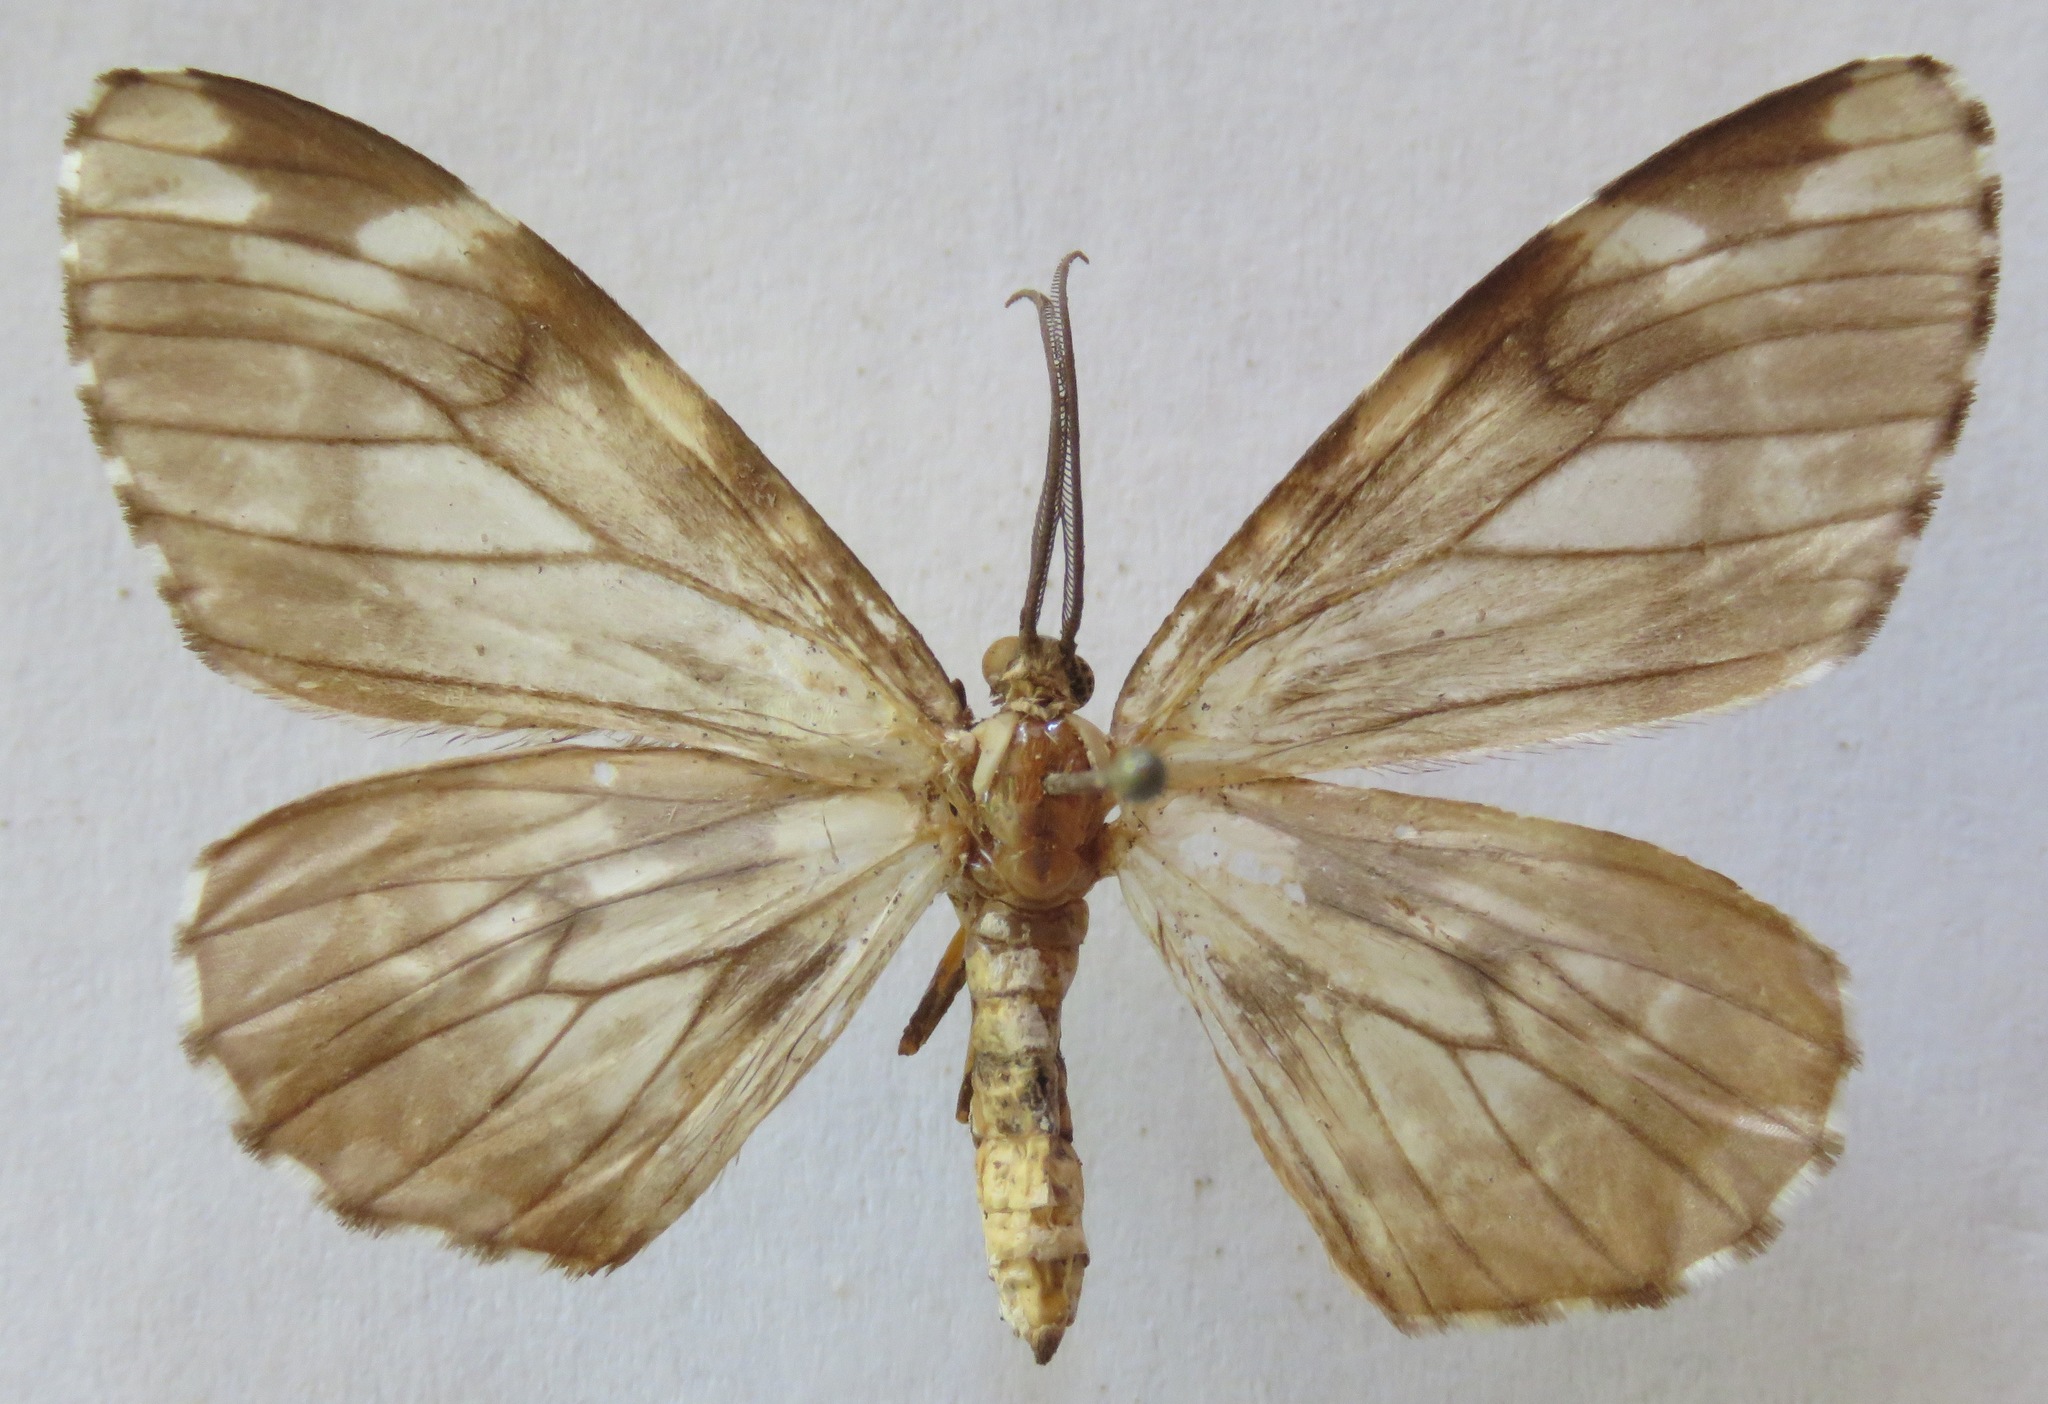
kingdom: Animalia
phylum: Arthropoda
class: Insecta
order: Lepidoptera
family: Geometridae
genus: Nephodia
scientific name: Nephodia organa
